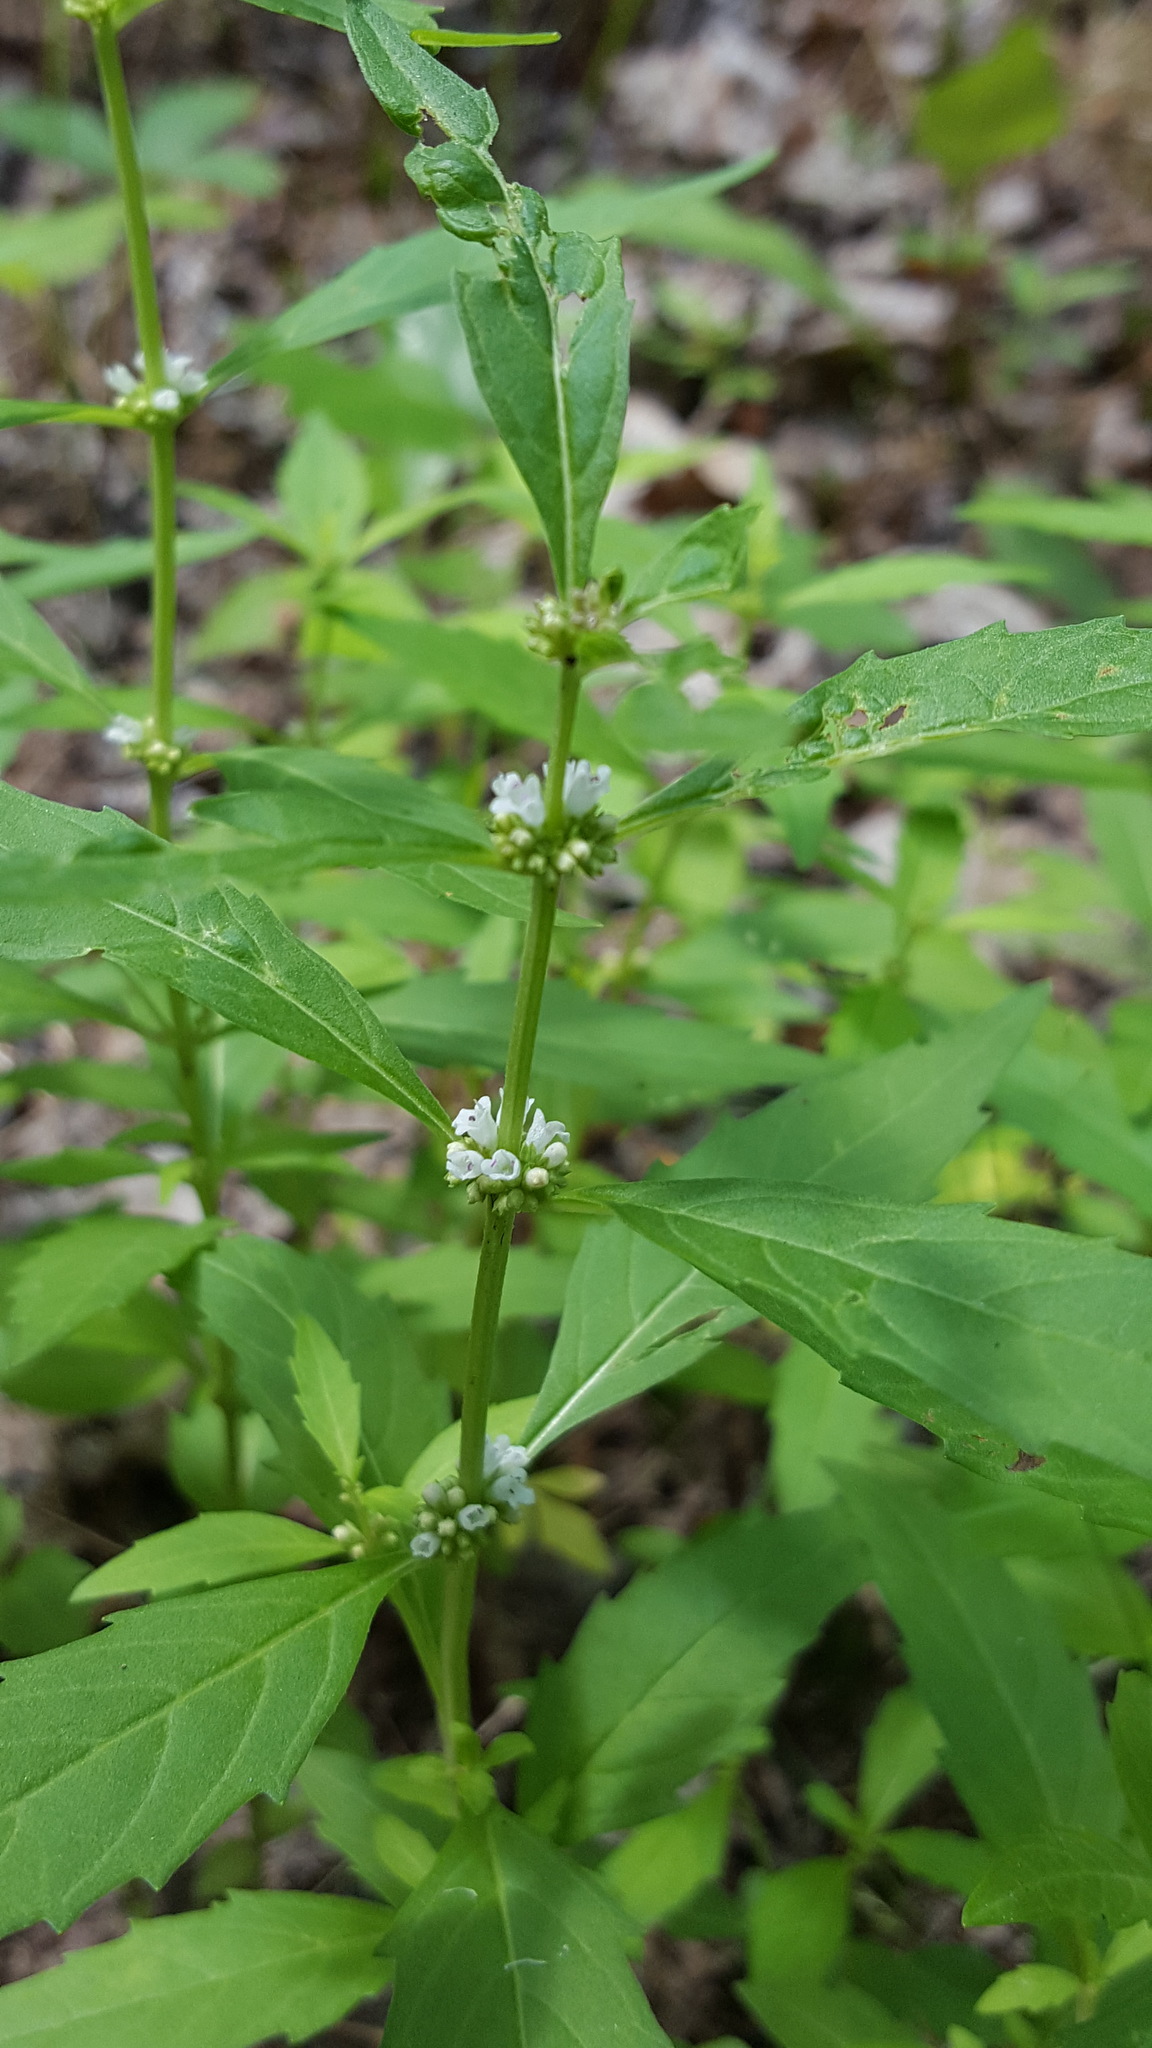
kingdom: Plantae
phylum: Tracheophyta
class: Magnoliopsida
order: Lamiales
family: Lamiaceae
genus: Lycopus
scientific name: Lycopus uniflorus
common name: Northern bugleweed
